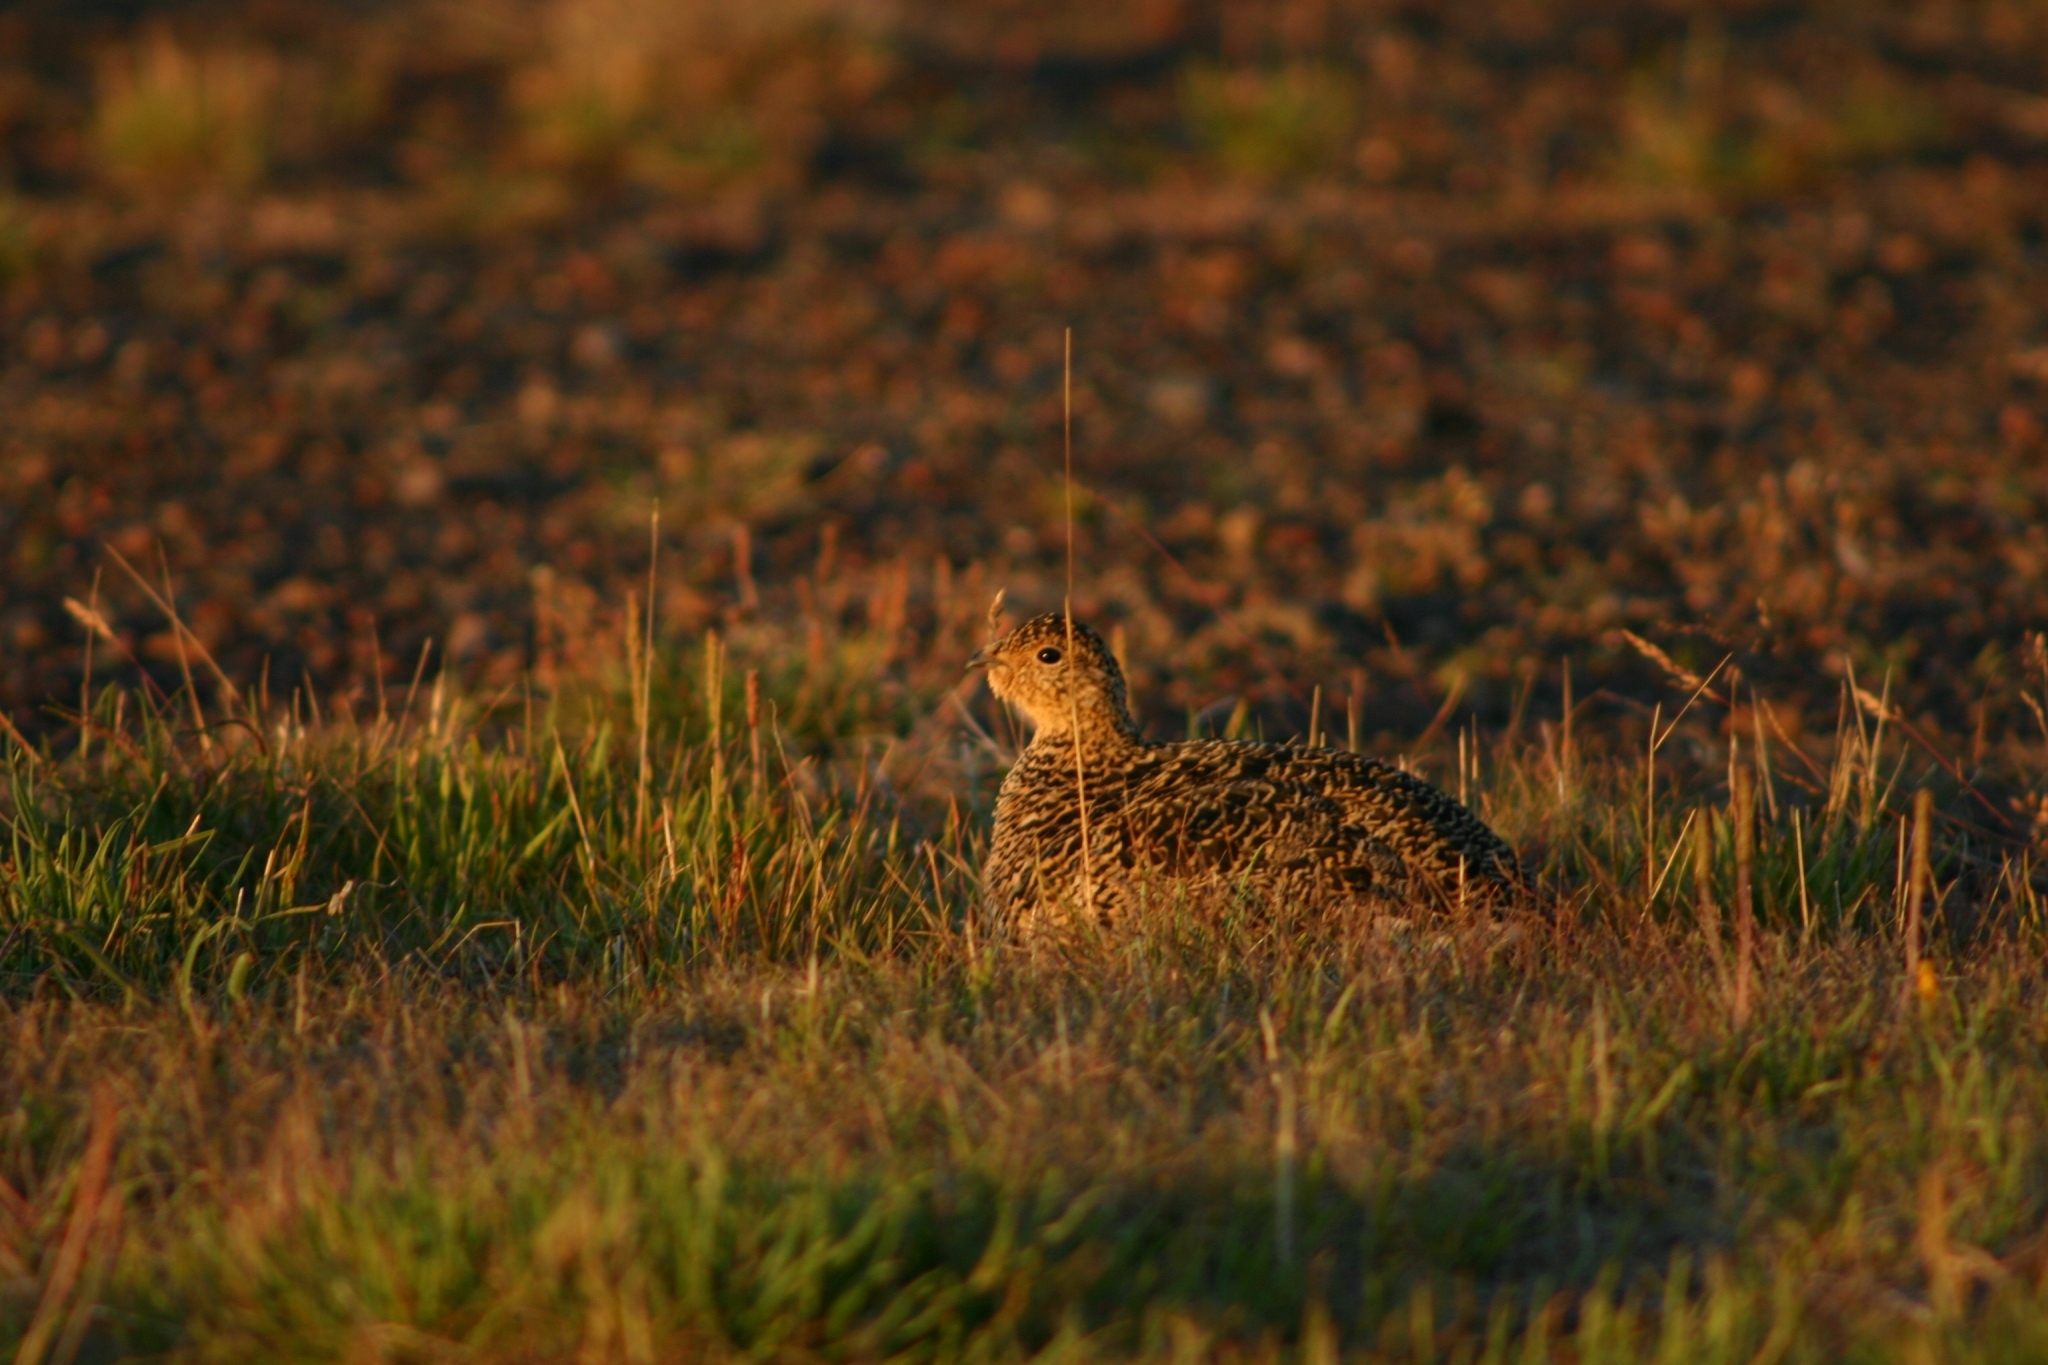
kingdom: Animalia
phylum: Chordata
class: Aves
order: Galliformes
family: Phasianidae
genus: Lagopus
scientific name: Lagopus muta
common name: Rock ptarmigan
